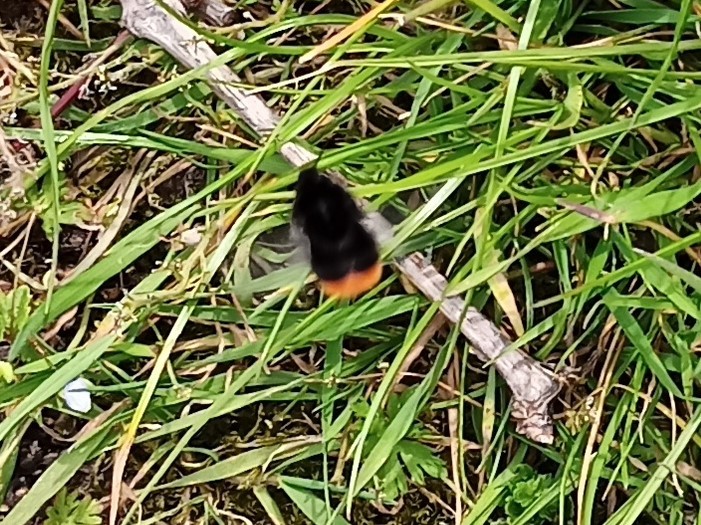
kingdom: Animalia
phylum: Arthropoda
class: Insecta
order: Hymenoptera
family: Apidae
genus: Bombus
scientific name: Bombus lapidarius
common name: Large red-tailed humble-bee
